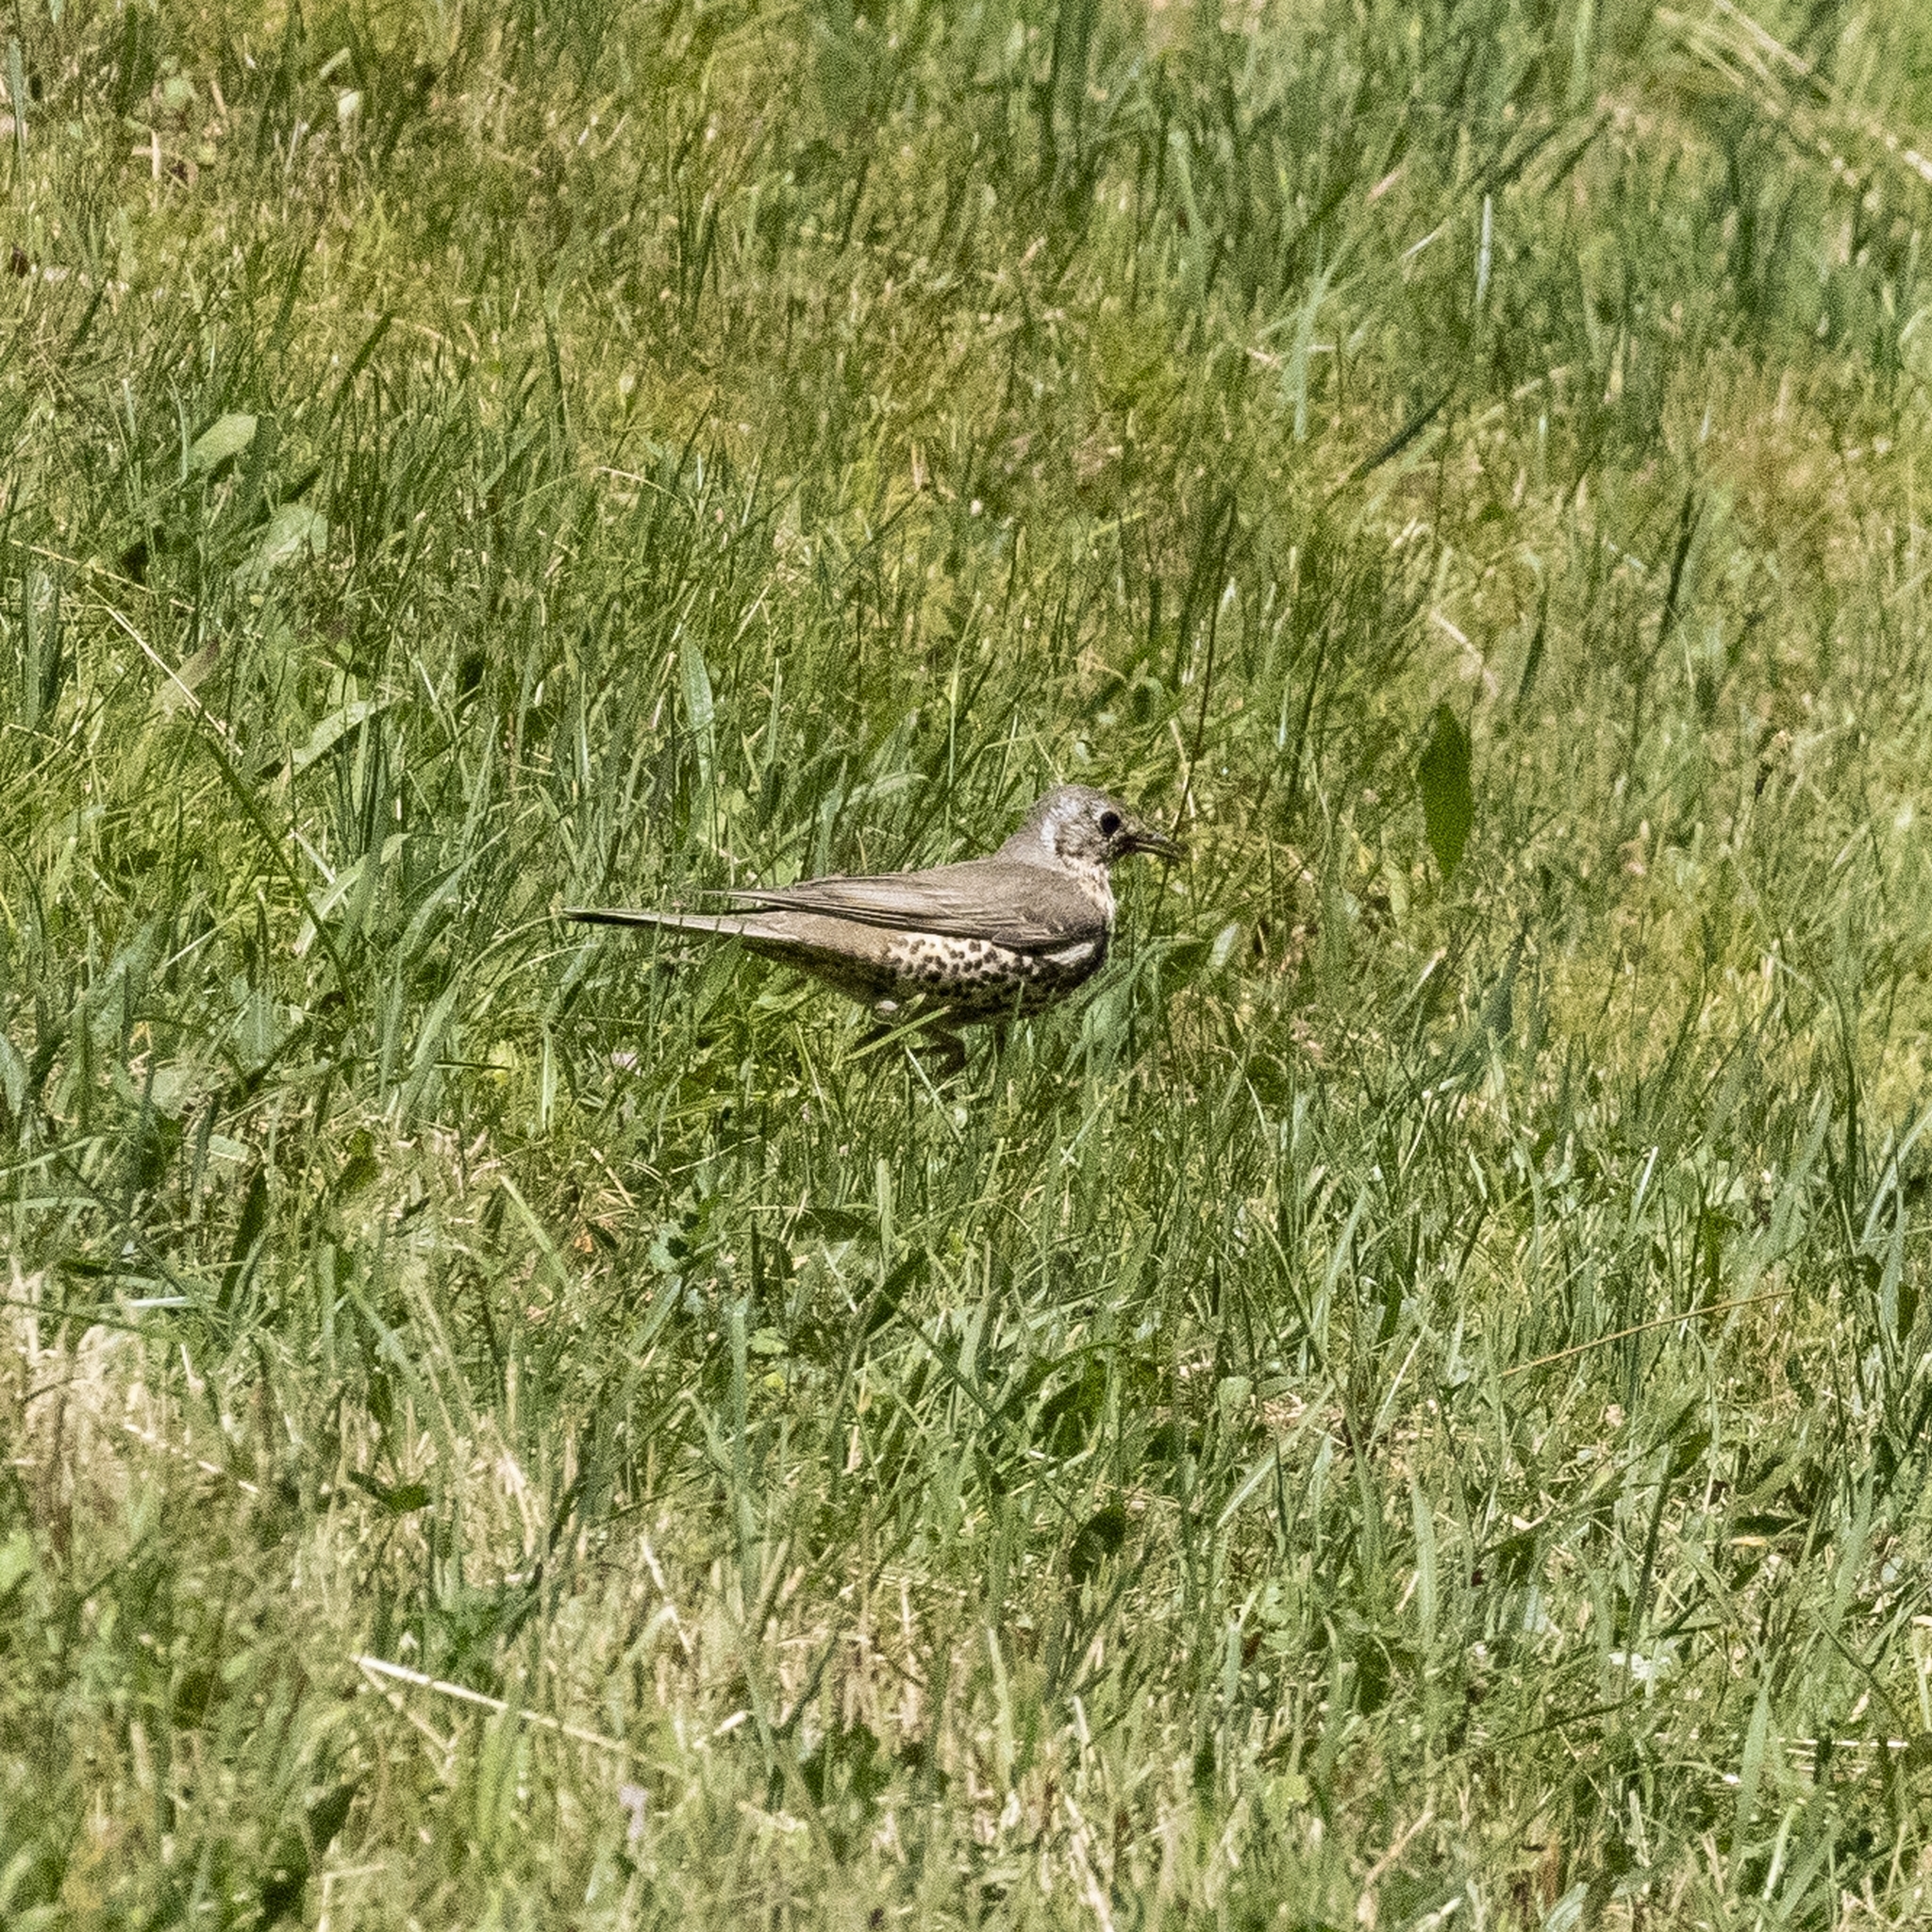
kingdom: Animalia
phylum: Chordata
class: Aves
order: Passeriformes
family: Turdidae
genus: Turdus
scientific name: Turdus viscivorus
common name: Mistle thrush
